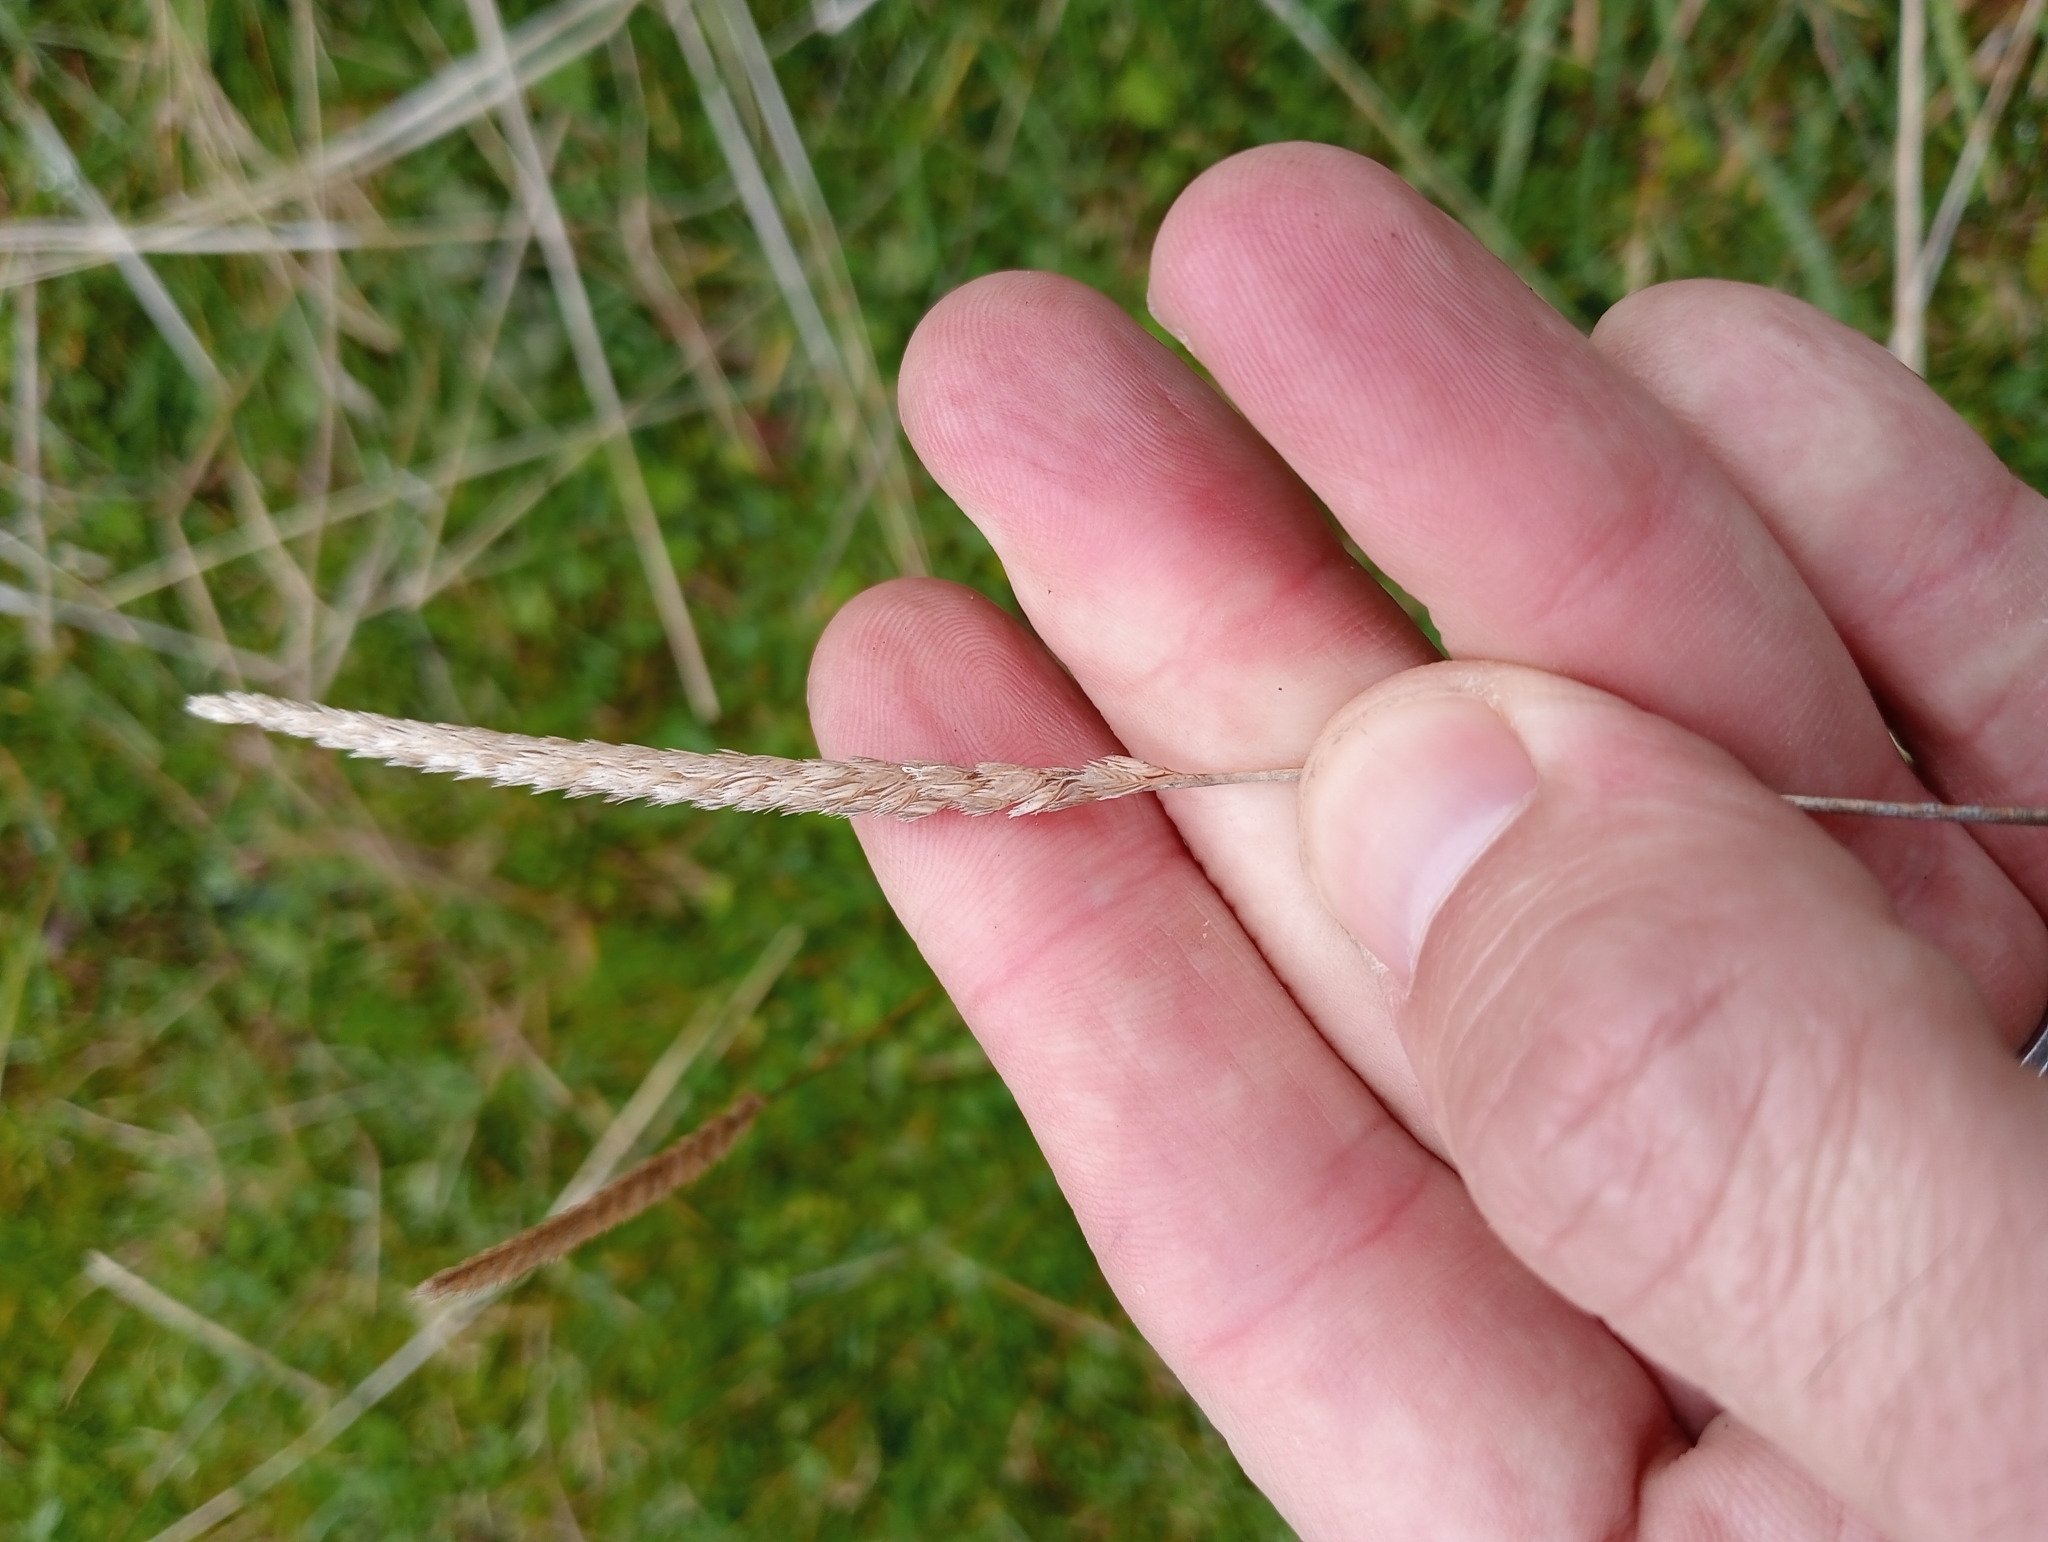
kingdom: Plantae
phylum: Tracheophyta
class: Liliopsida
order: Poales
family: Poaceae
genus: Cynosurus
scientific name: Cynosurus cristatus
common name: Crested dog's-tail
